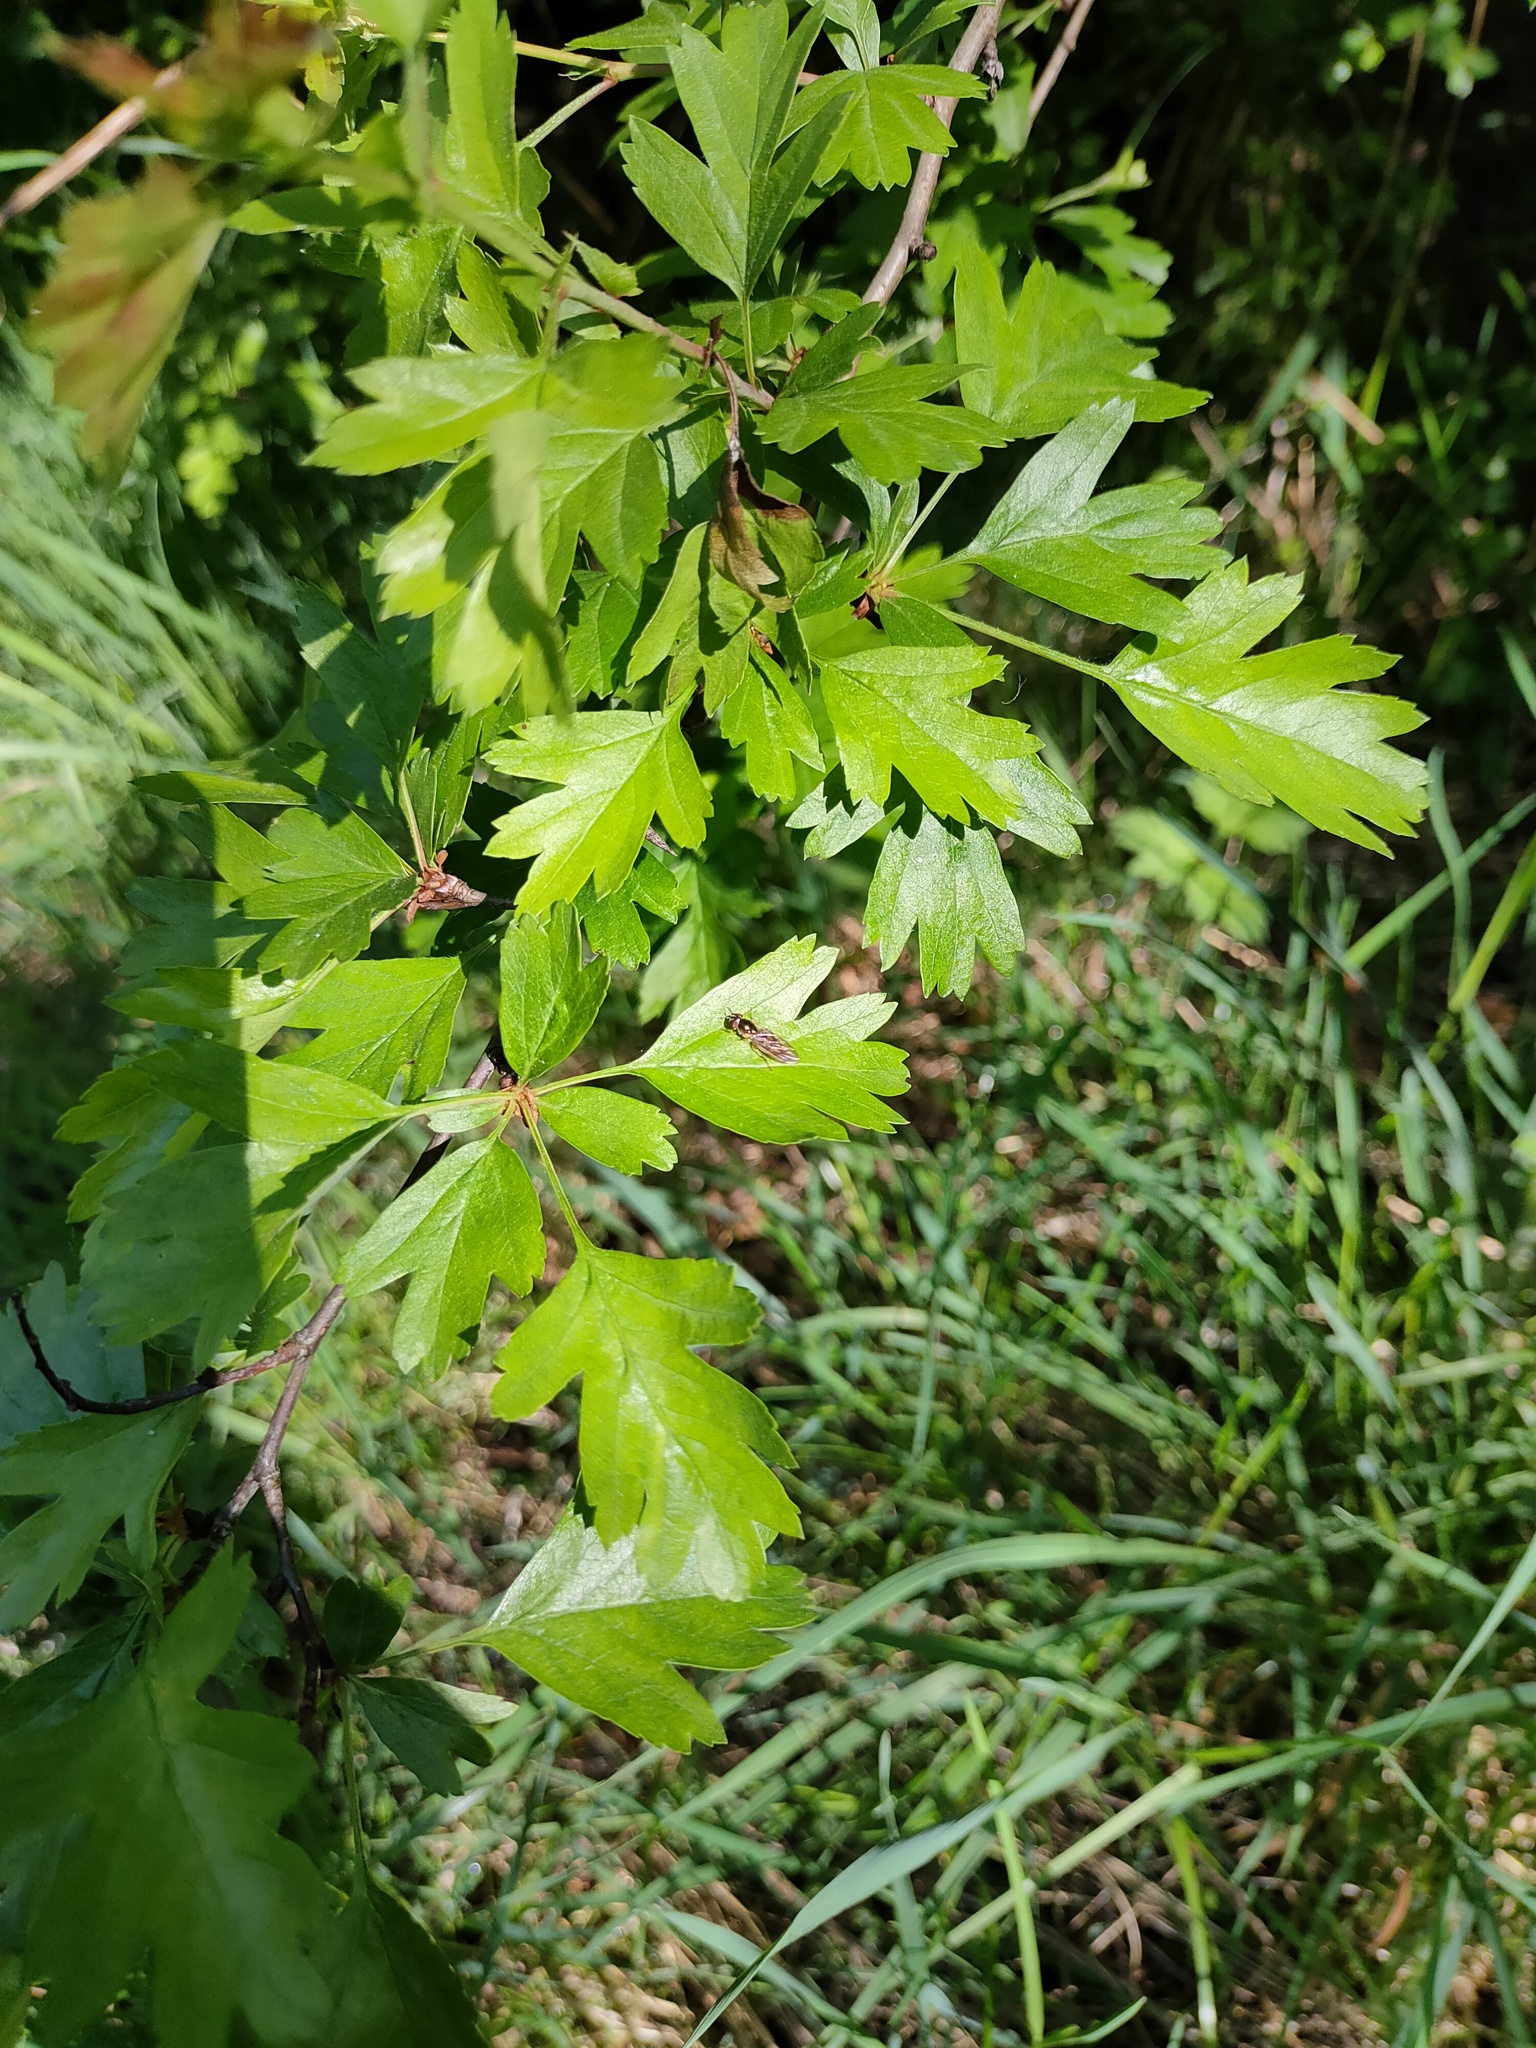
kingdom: Animalia
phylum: Arthropoda
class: Insecta
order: Diptera
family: Syrphidae
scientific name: Syrphidae
